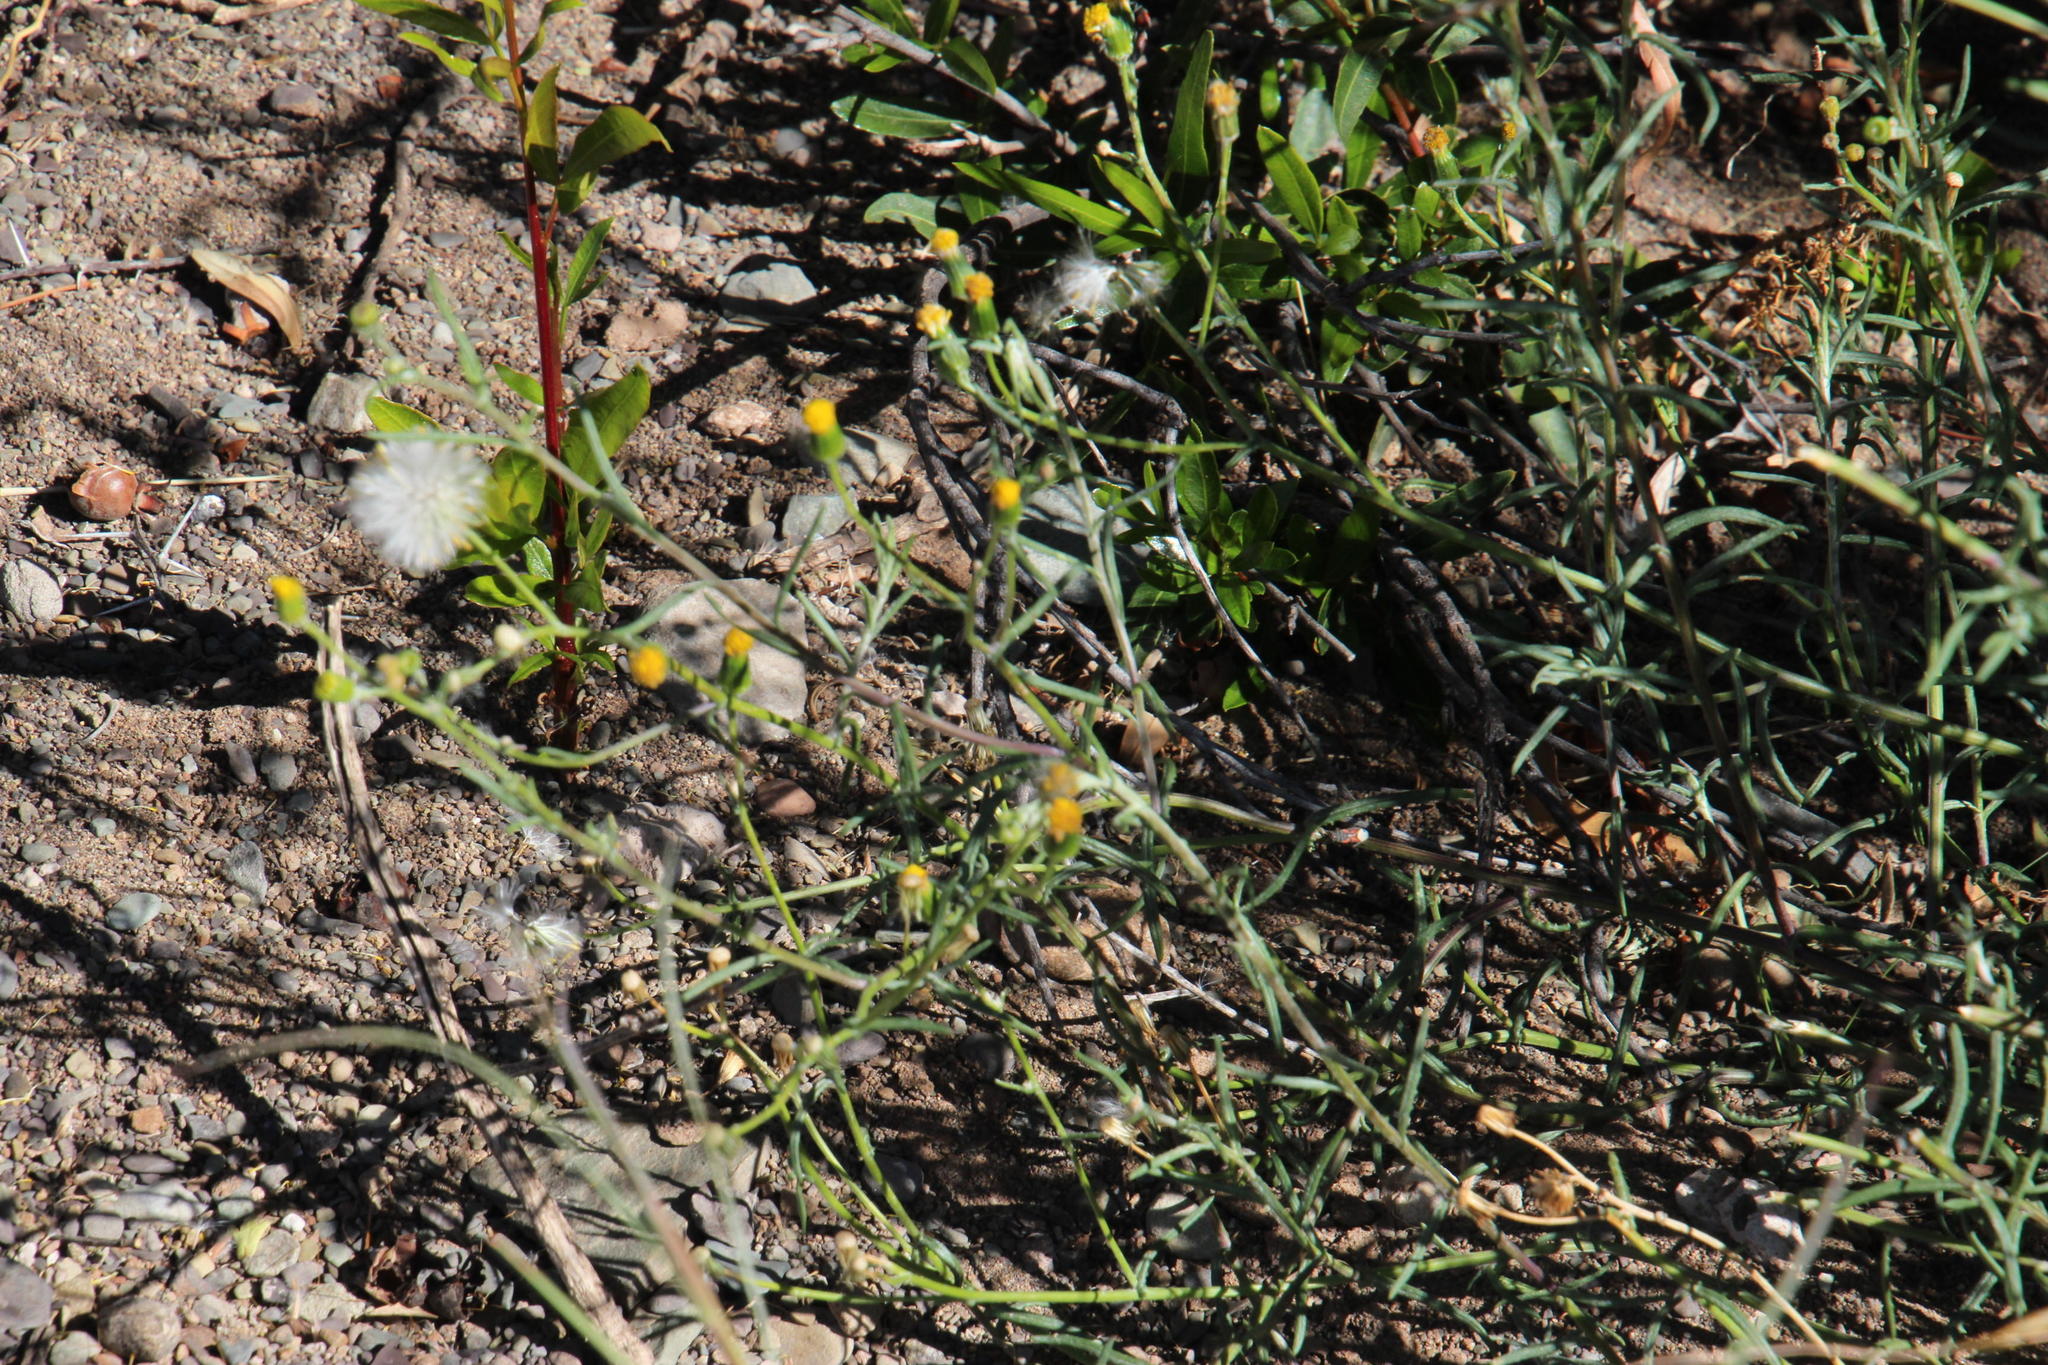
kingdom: Plantae
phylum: Tracheophyta
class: Magnoliopsida
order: Asterales
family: Asteraceae
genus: Senecio
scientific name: Senecio niveus
